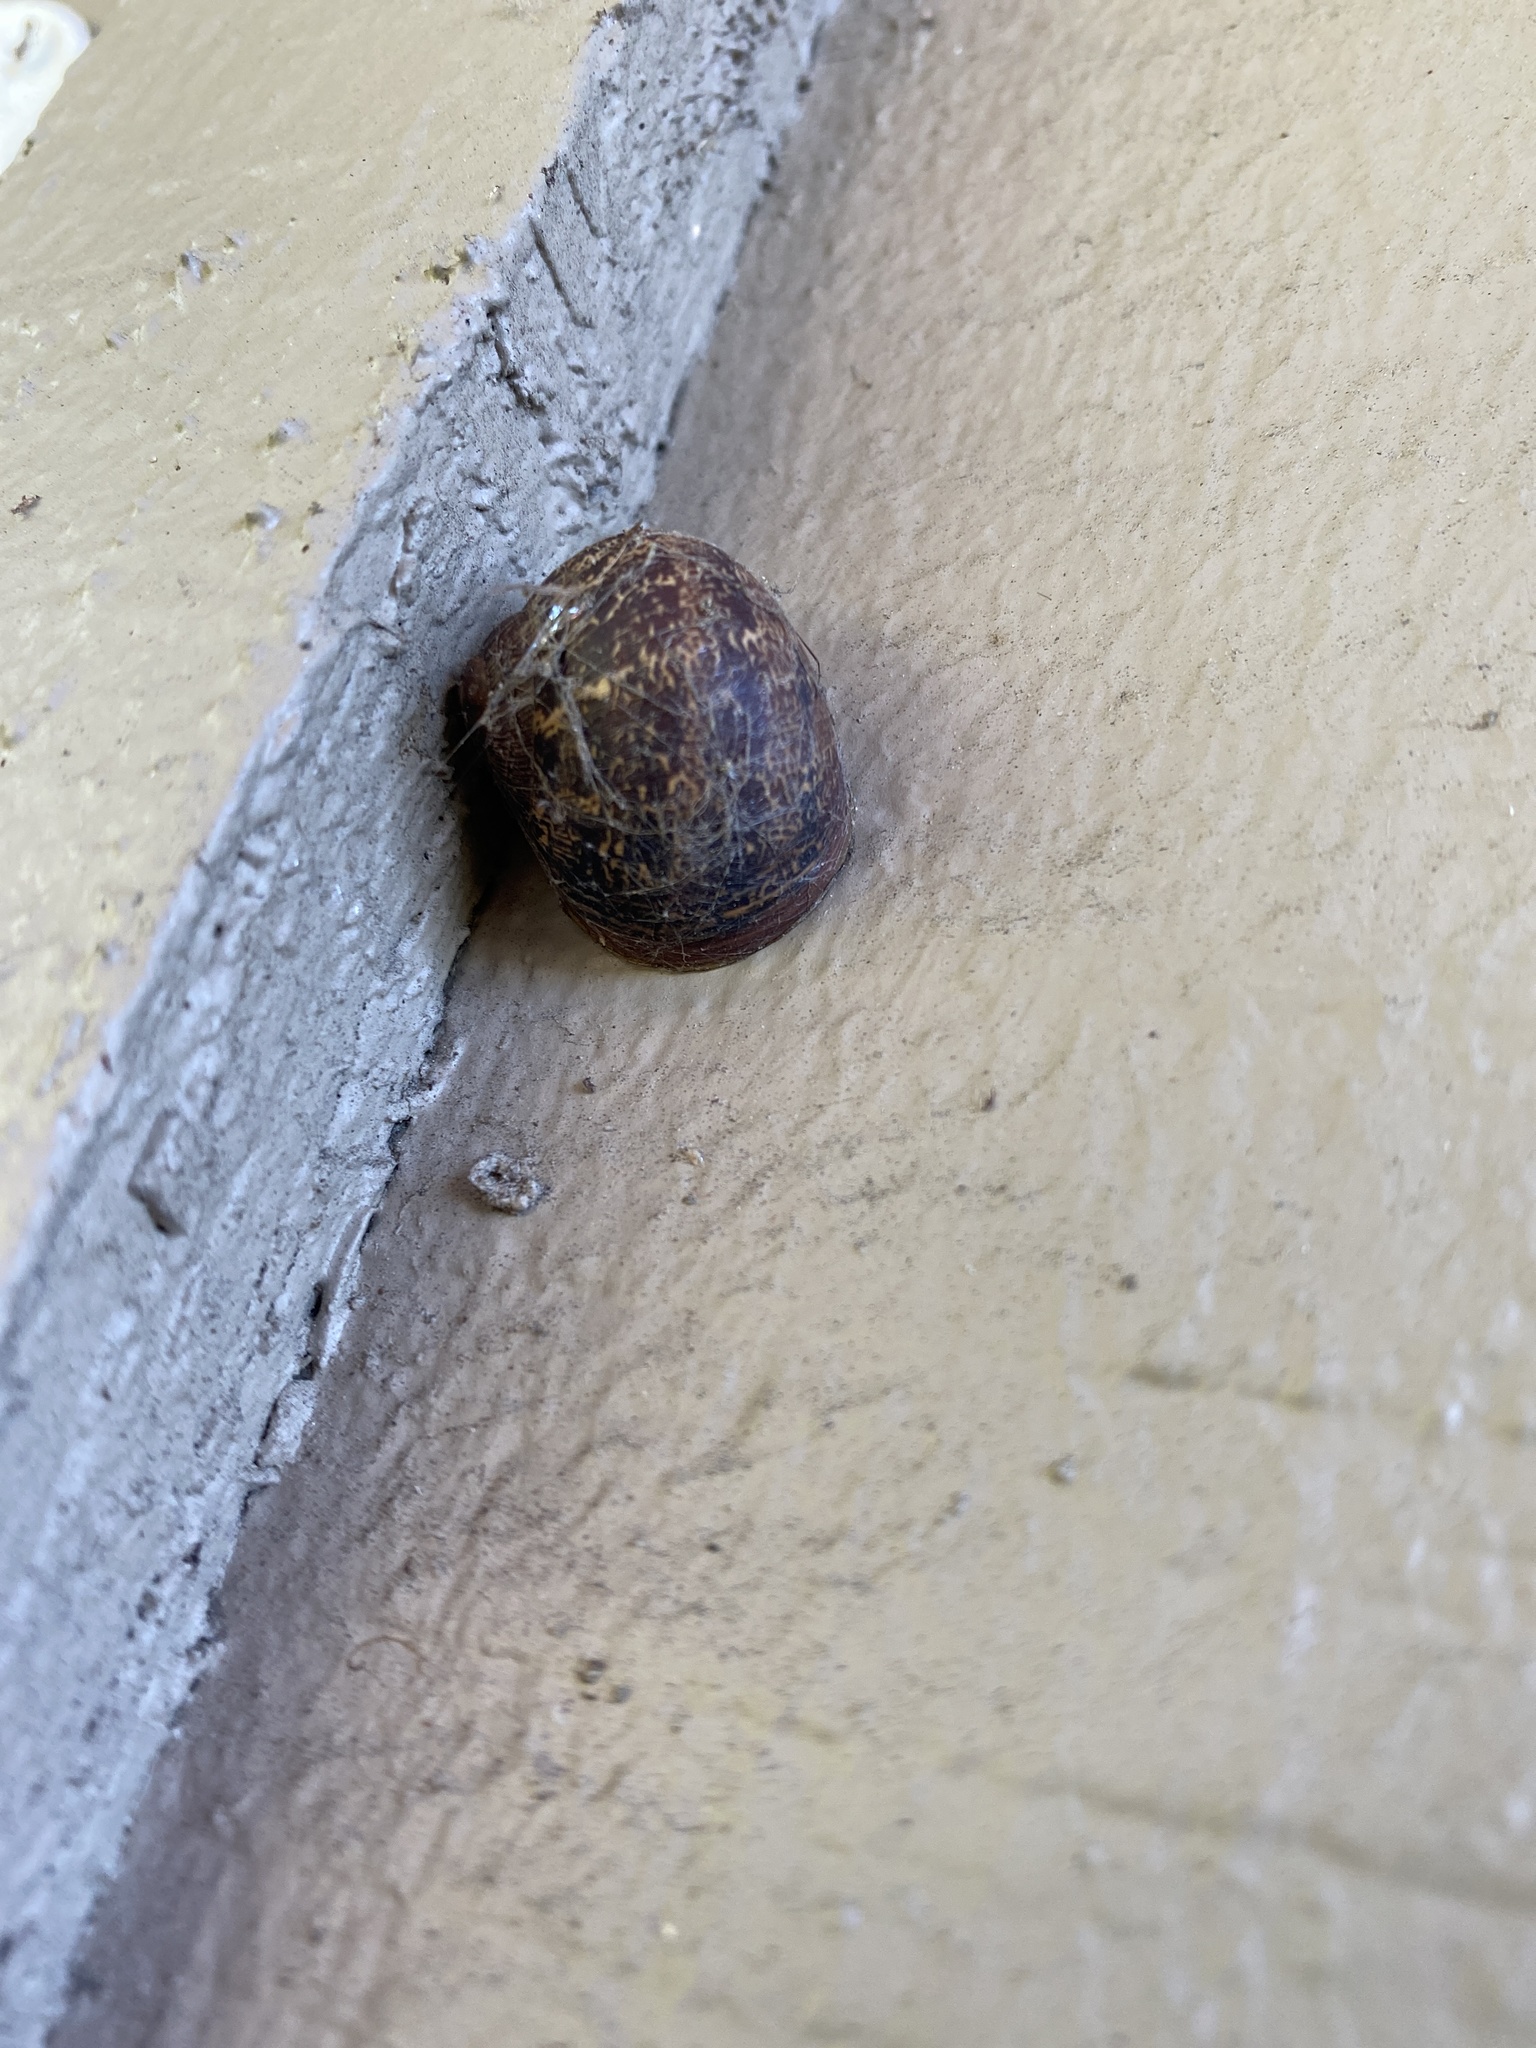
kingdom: Animalia
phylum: Mollusca
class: Gastropoda
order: Stylommatophora
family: Helicidae
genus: Cornu
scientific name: Cornu aspersum
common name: Brown garden snail
